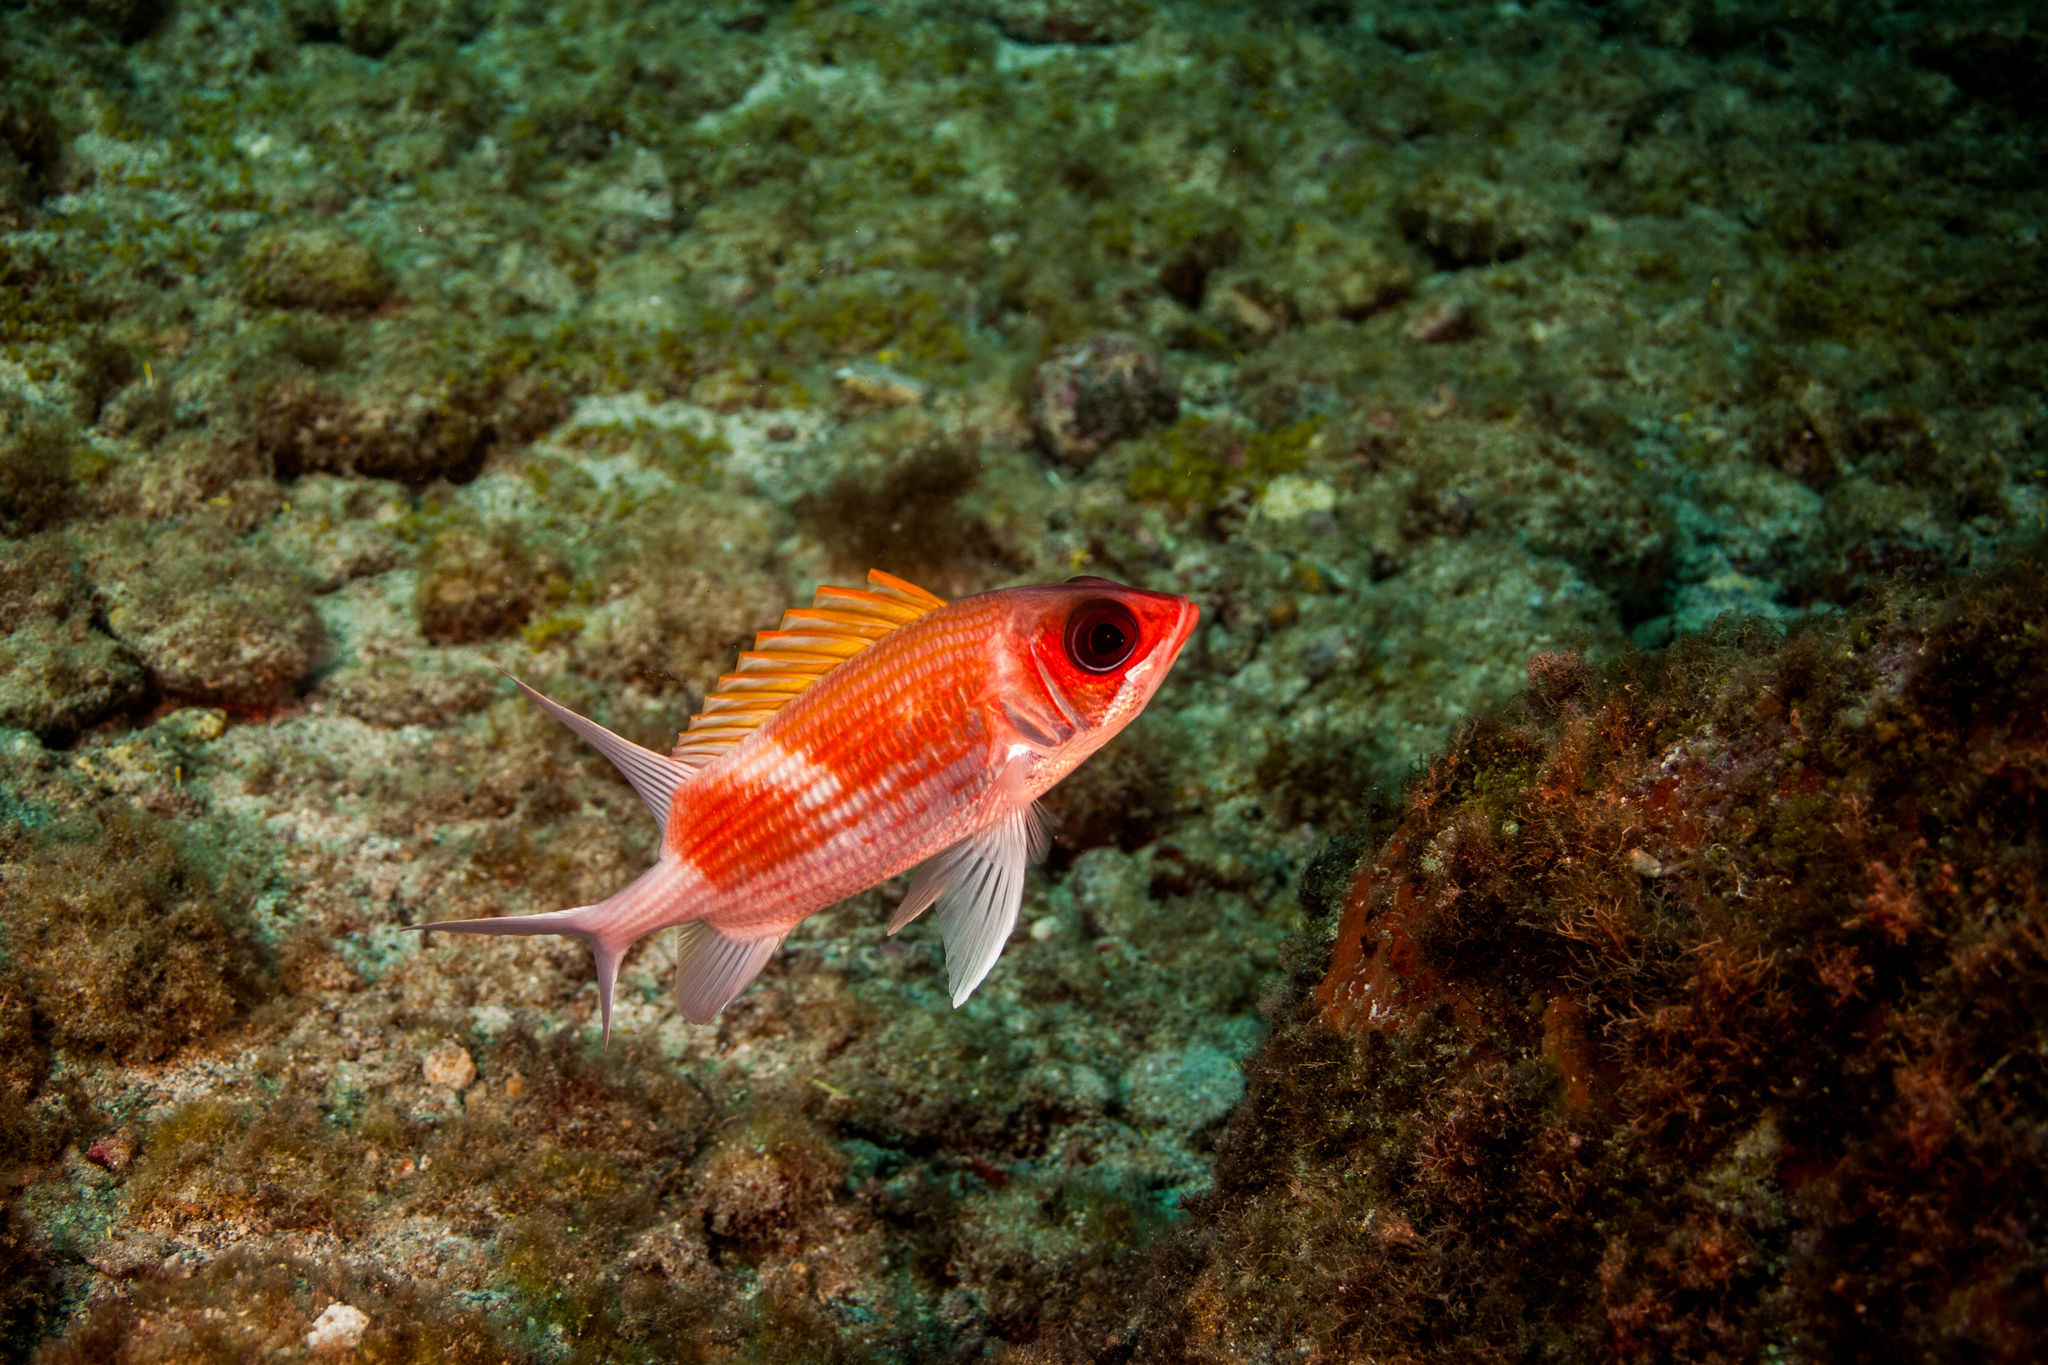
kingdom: Animalia
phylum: Chordata
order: Beryciformes
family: Holocentridae
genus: Holocentrus
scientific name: Holocentrus adscensionis
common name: Squirrelfish
